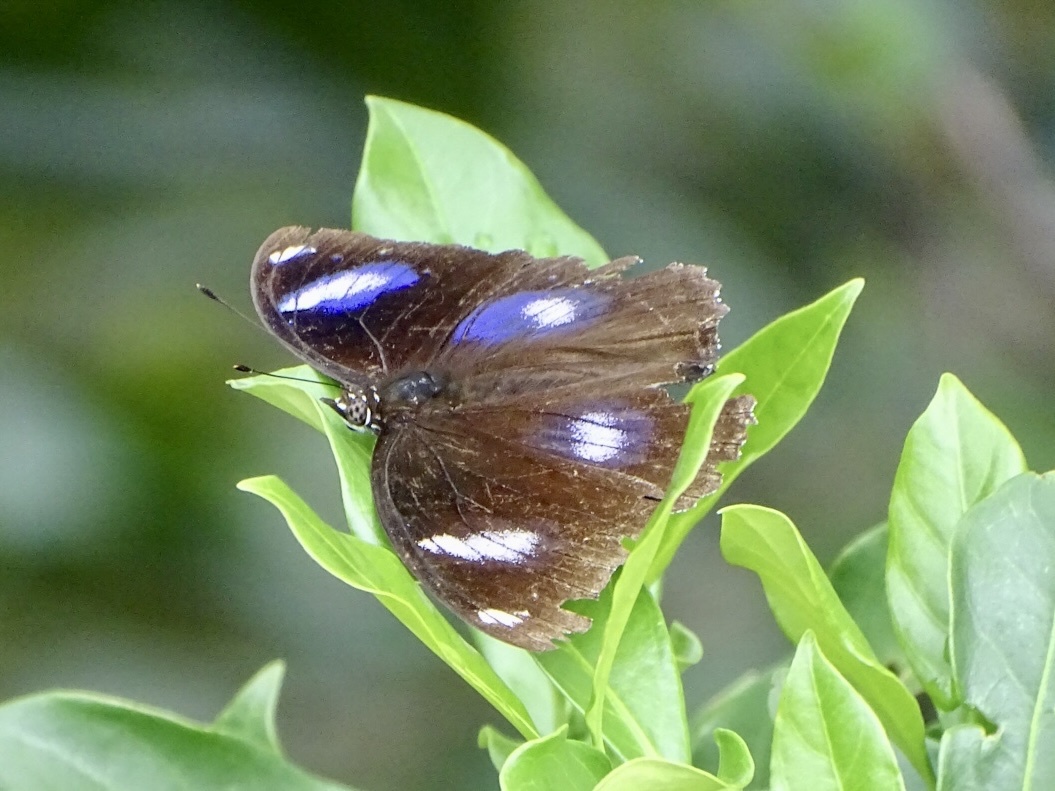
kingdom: Animalia
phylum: Arthropoda
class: Insecta
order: Lepidoptera
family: Nymphalidae
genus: Hypolimnas
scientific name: Hypolimnas bolina
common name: Great eggfly
